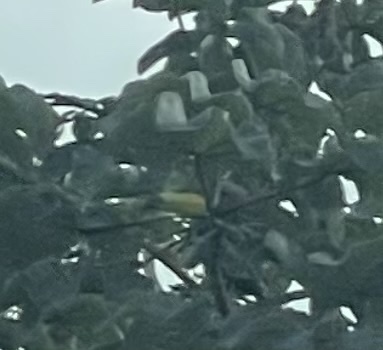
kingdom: Animalia
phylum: Chordata
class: Aves
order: Piciformes
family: Ramphastidae
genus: Ramphastos
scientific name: Ramphastos sulfuratus
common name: Keel-billed toucan
